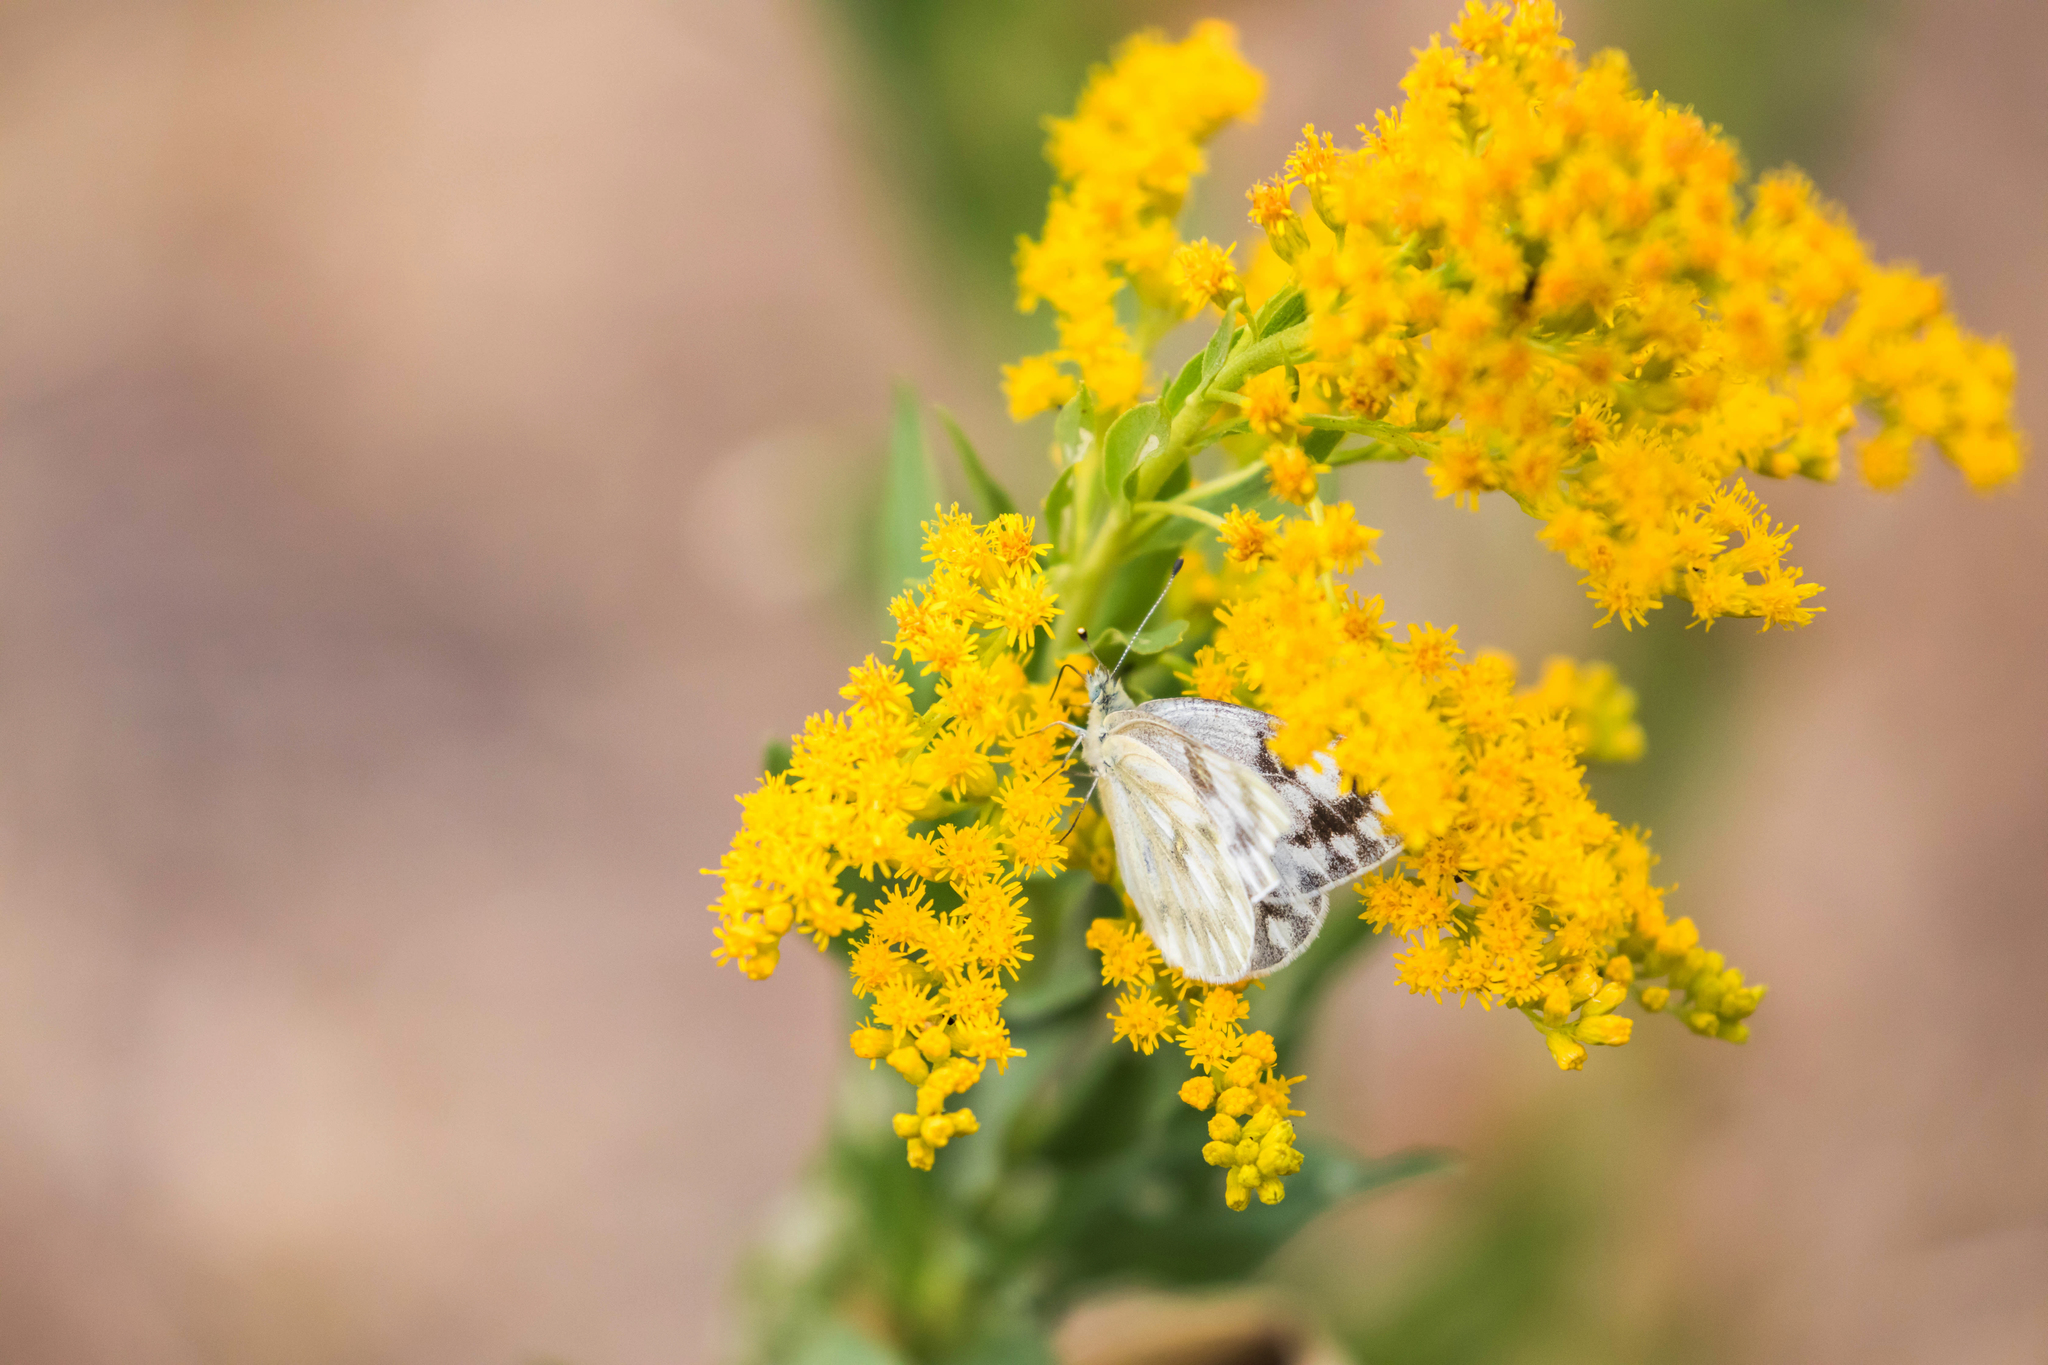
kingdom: Animalia
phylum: Arthropoda
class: Insecta
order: Lepidoptera
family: Pieridae
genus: Pontia
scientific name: Pontia occidentalis
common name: Western white
